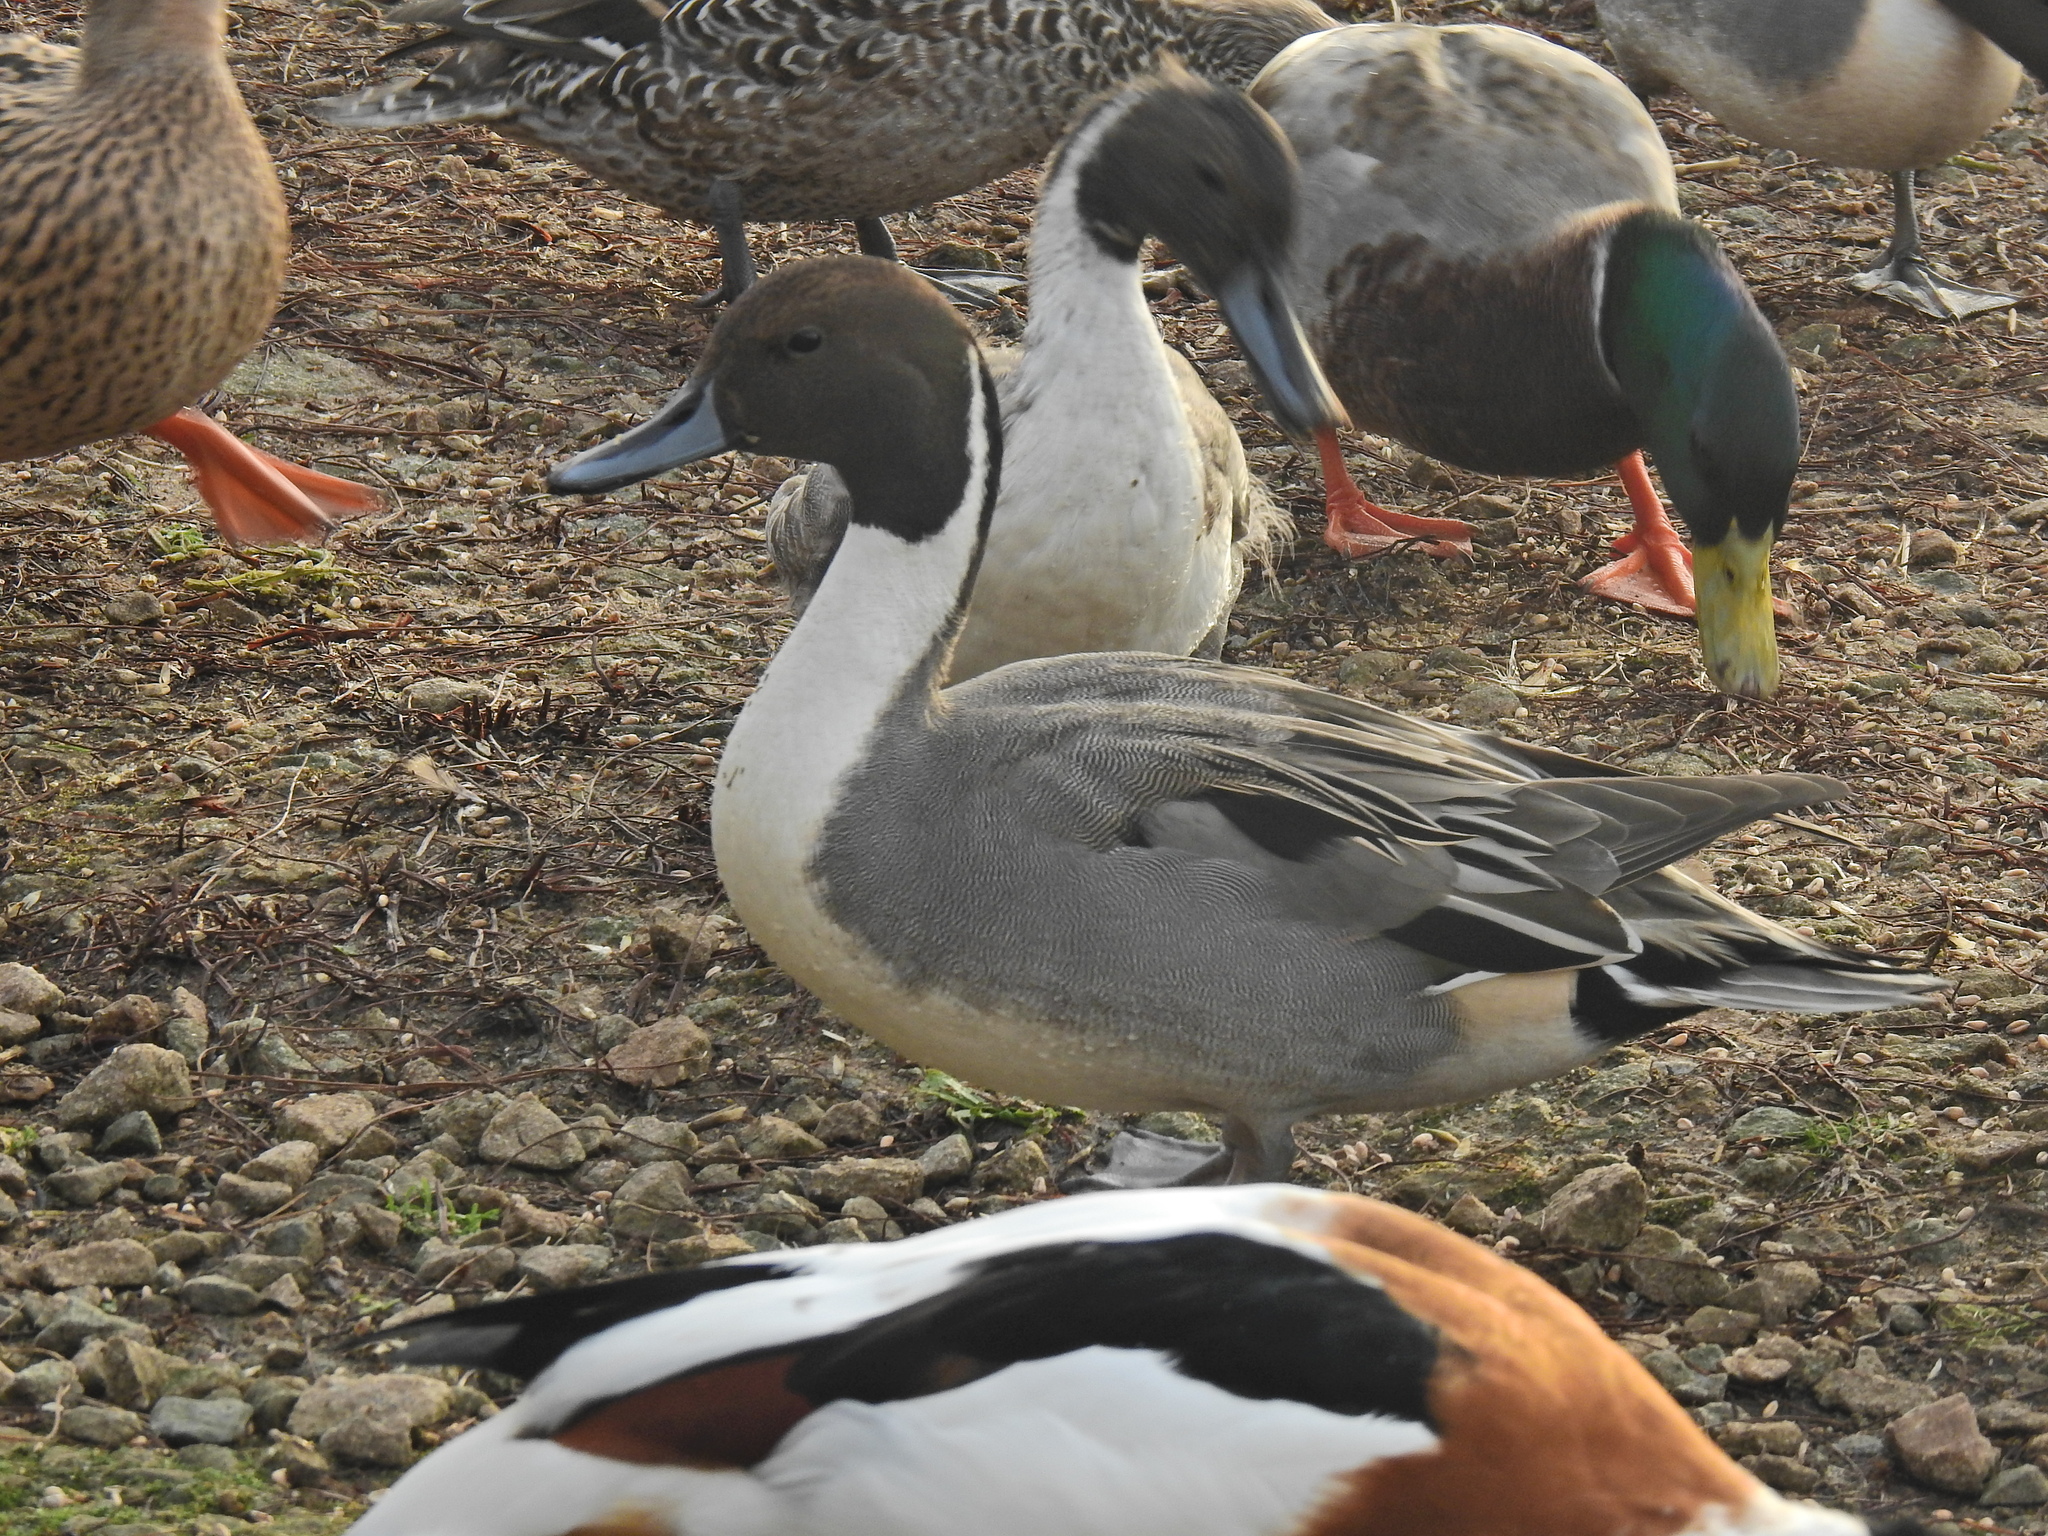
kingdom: Animalia
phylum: Chordata
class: Aves
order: Anseriformes
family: Anatidae
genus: Anas
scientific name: Anas acuta
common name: Northern pintail
